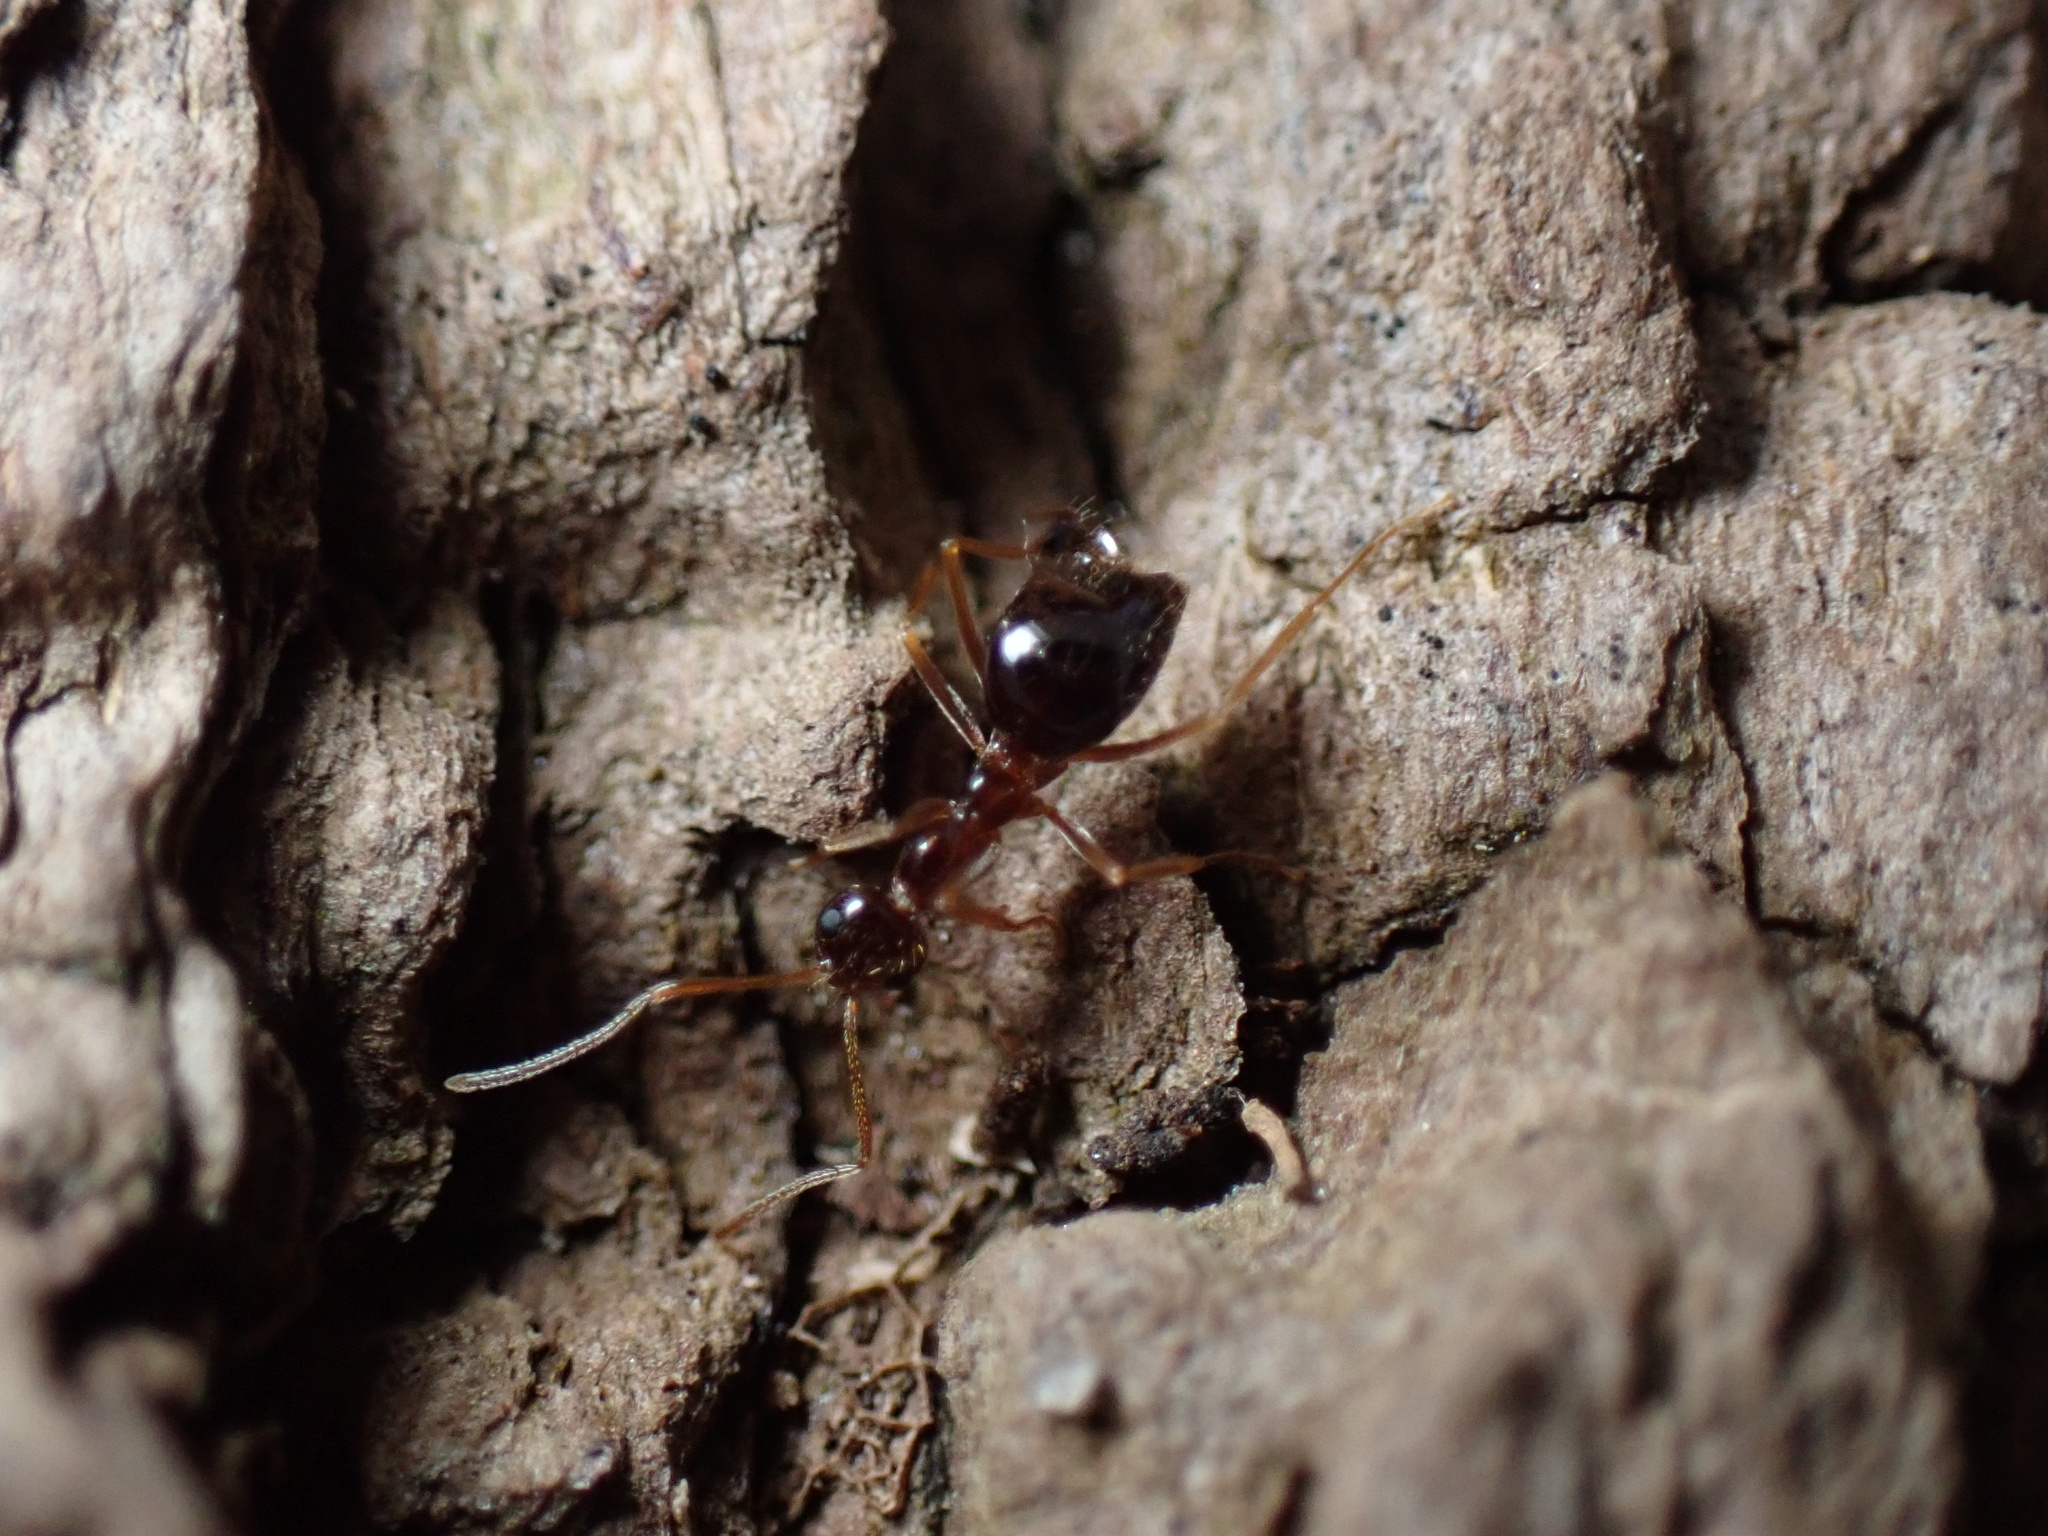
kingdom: Animalia
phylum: Arthropoda
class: Insecta
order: Hymenoptera
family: Formicidae
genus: Prenolepis
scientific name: Prenolepis imparis
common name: Small honey ant
